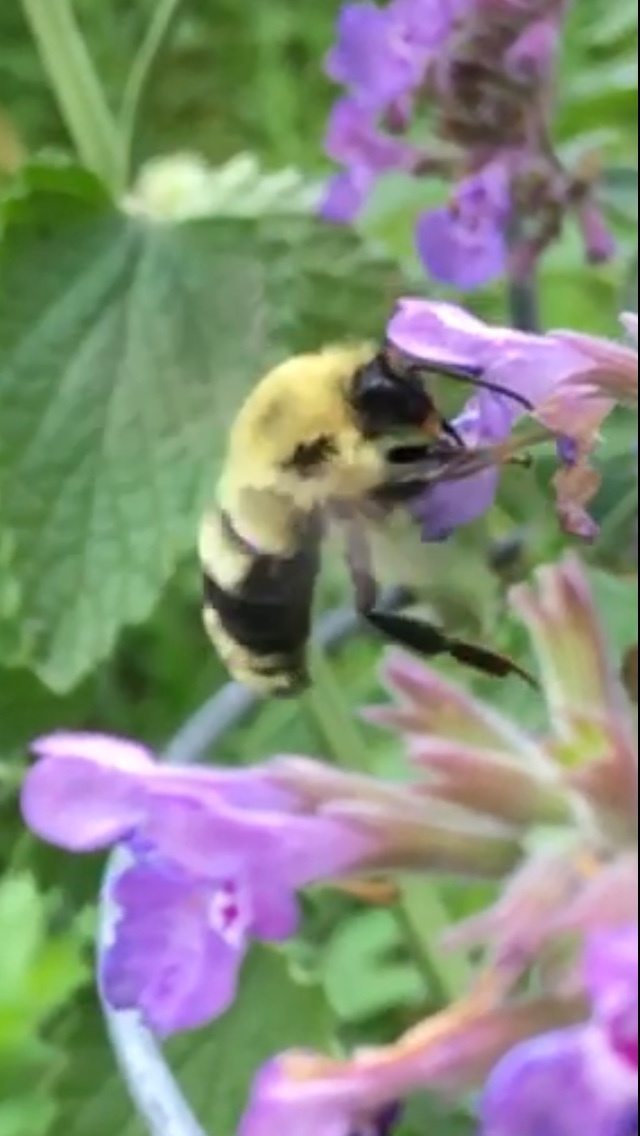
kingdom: Animalia
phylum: Arthropoda
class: Insecta
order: Hymenoptera
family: Apidae
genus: Bombus
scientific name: Bombus bimaculatus
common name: Two-spotted bumble bee
